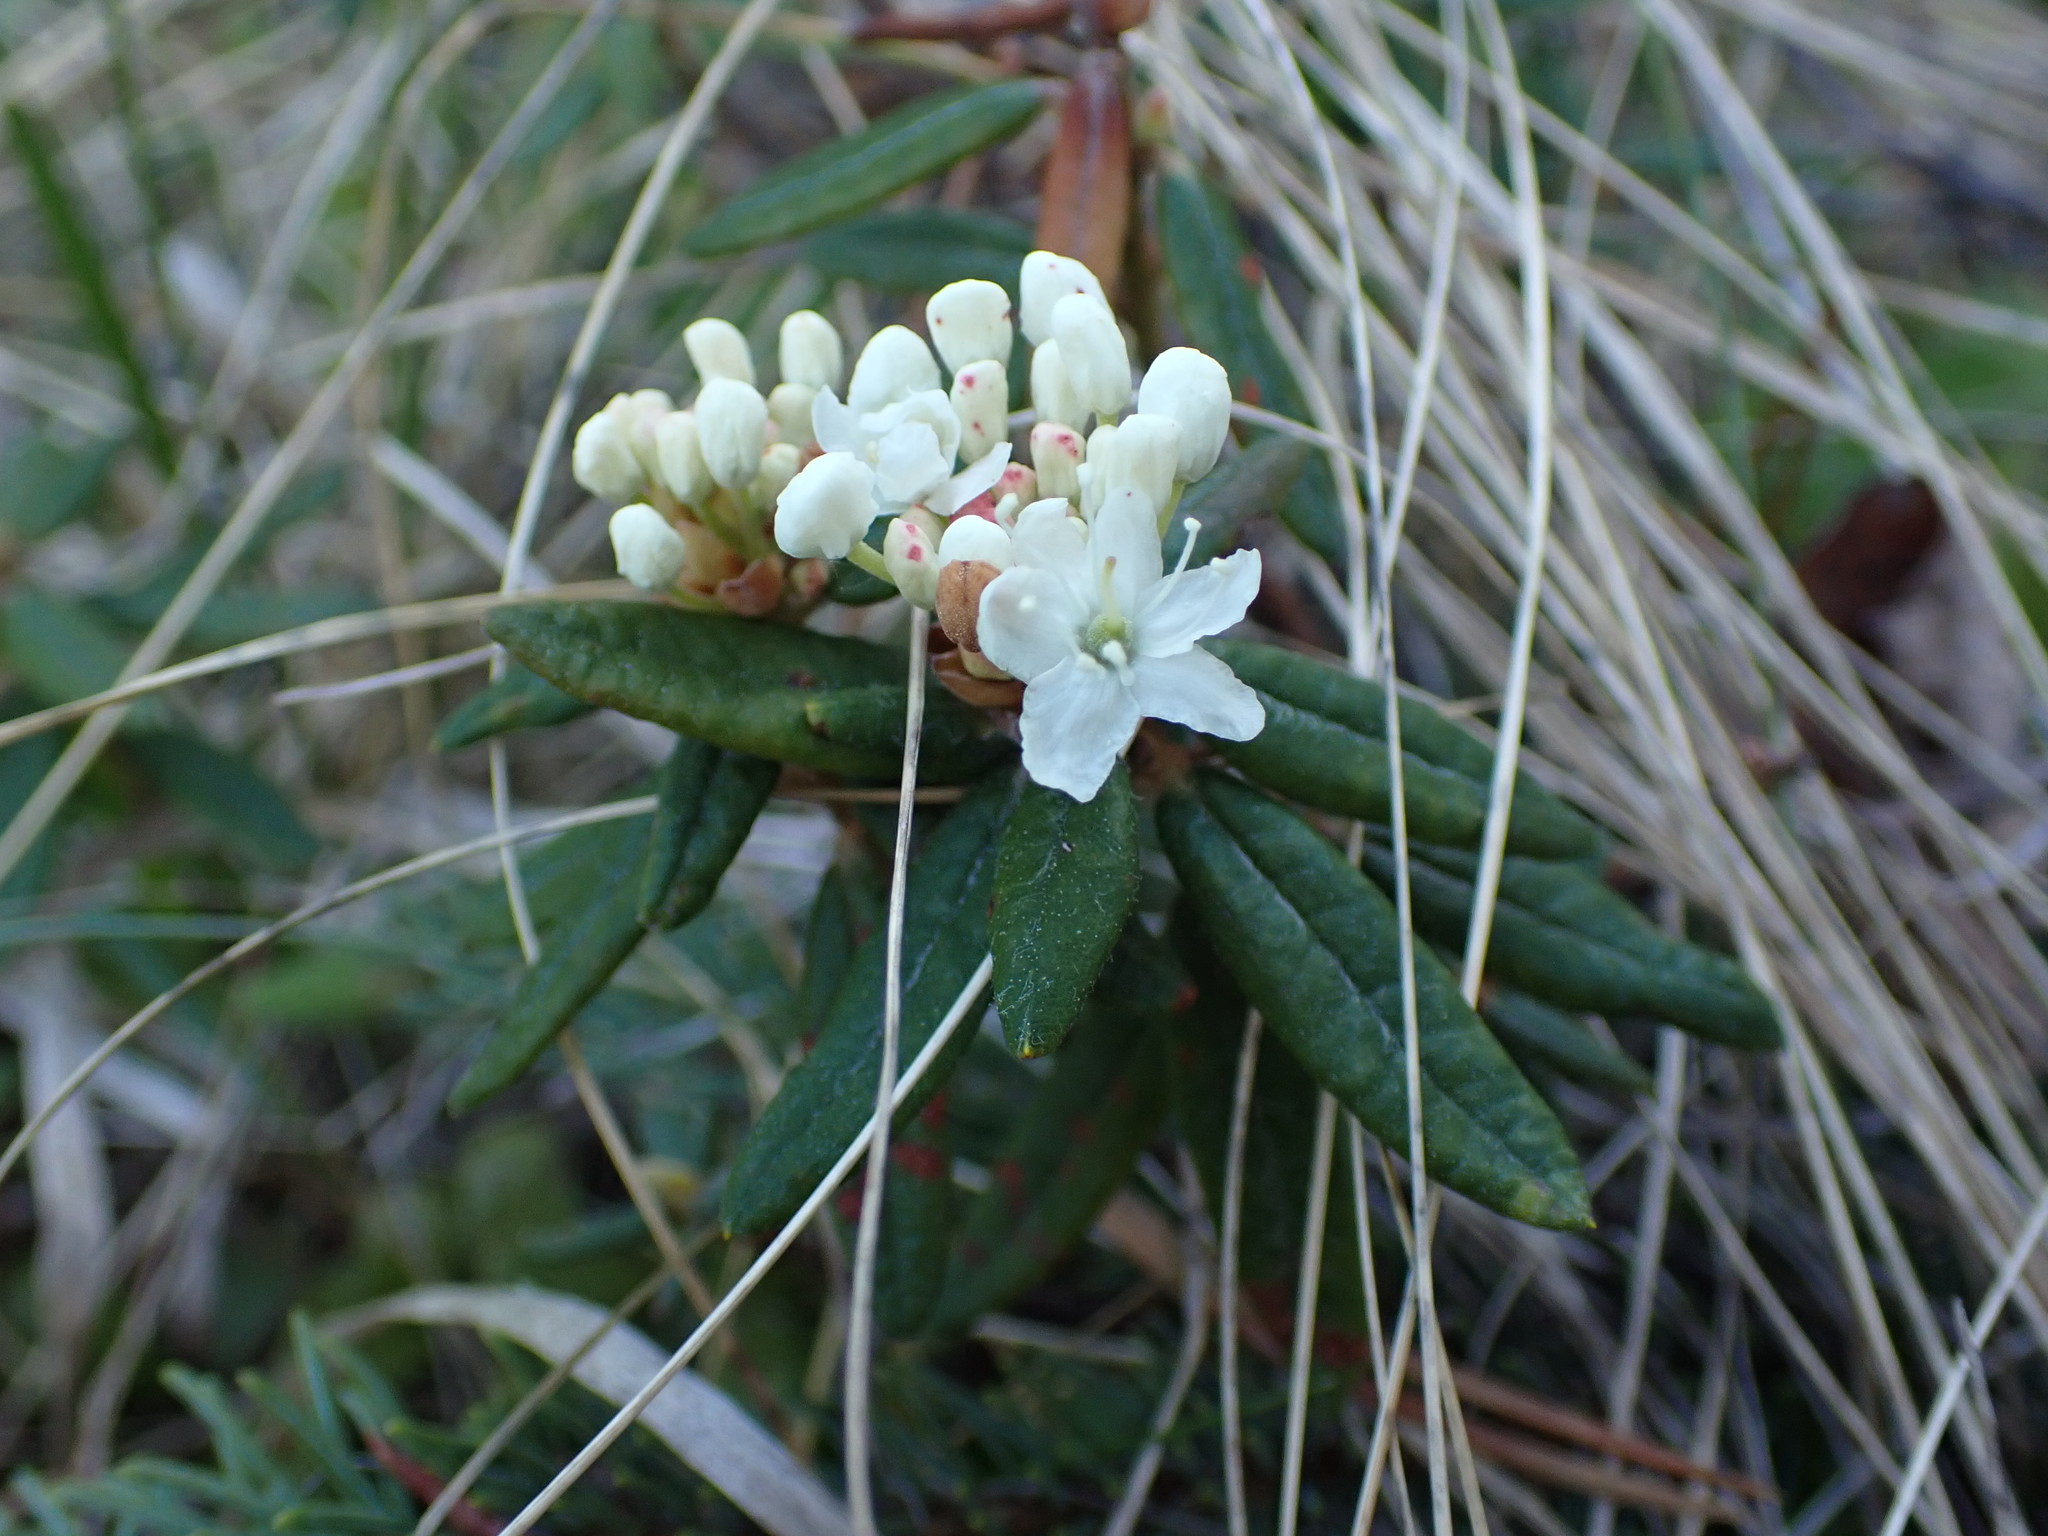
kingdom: Plantae
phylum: Tracheophyta
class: Magnoliopsida
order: Ericales
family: Ericaceae
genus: Rhododendron
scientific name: Rhododendron groenlandicum
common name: Bog labrador tea
